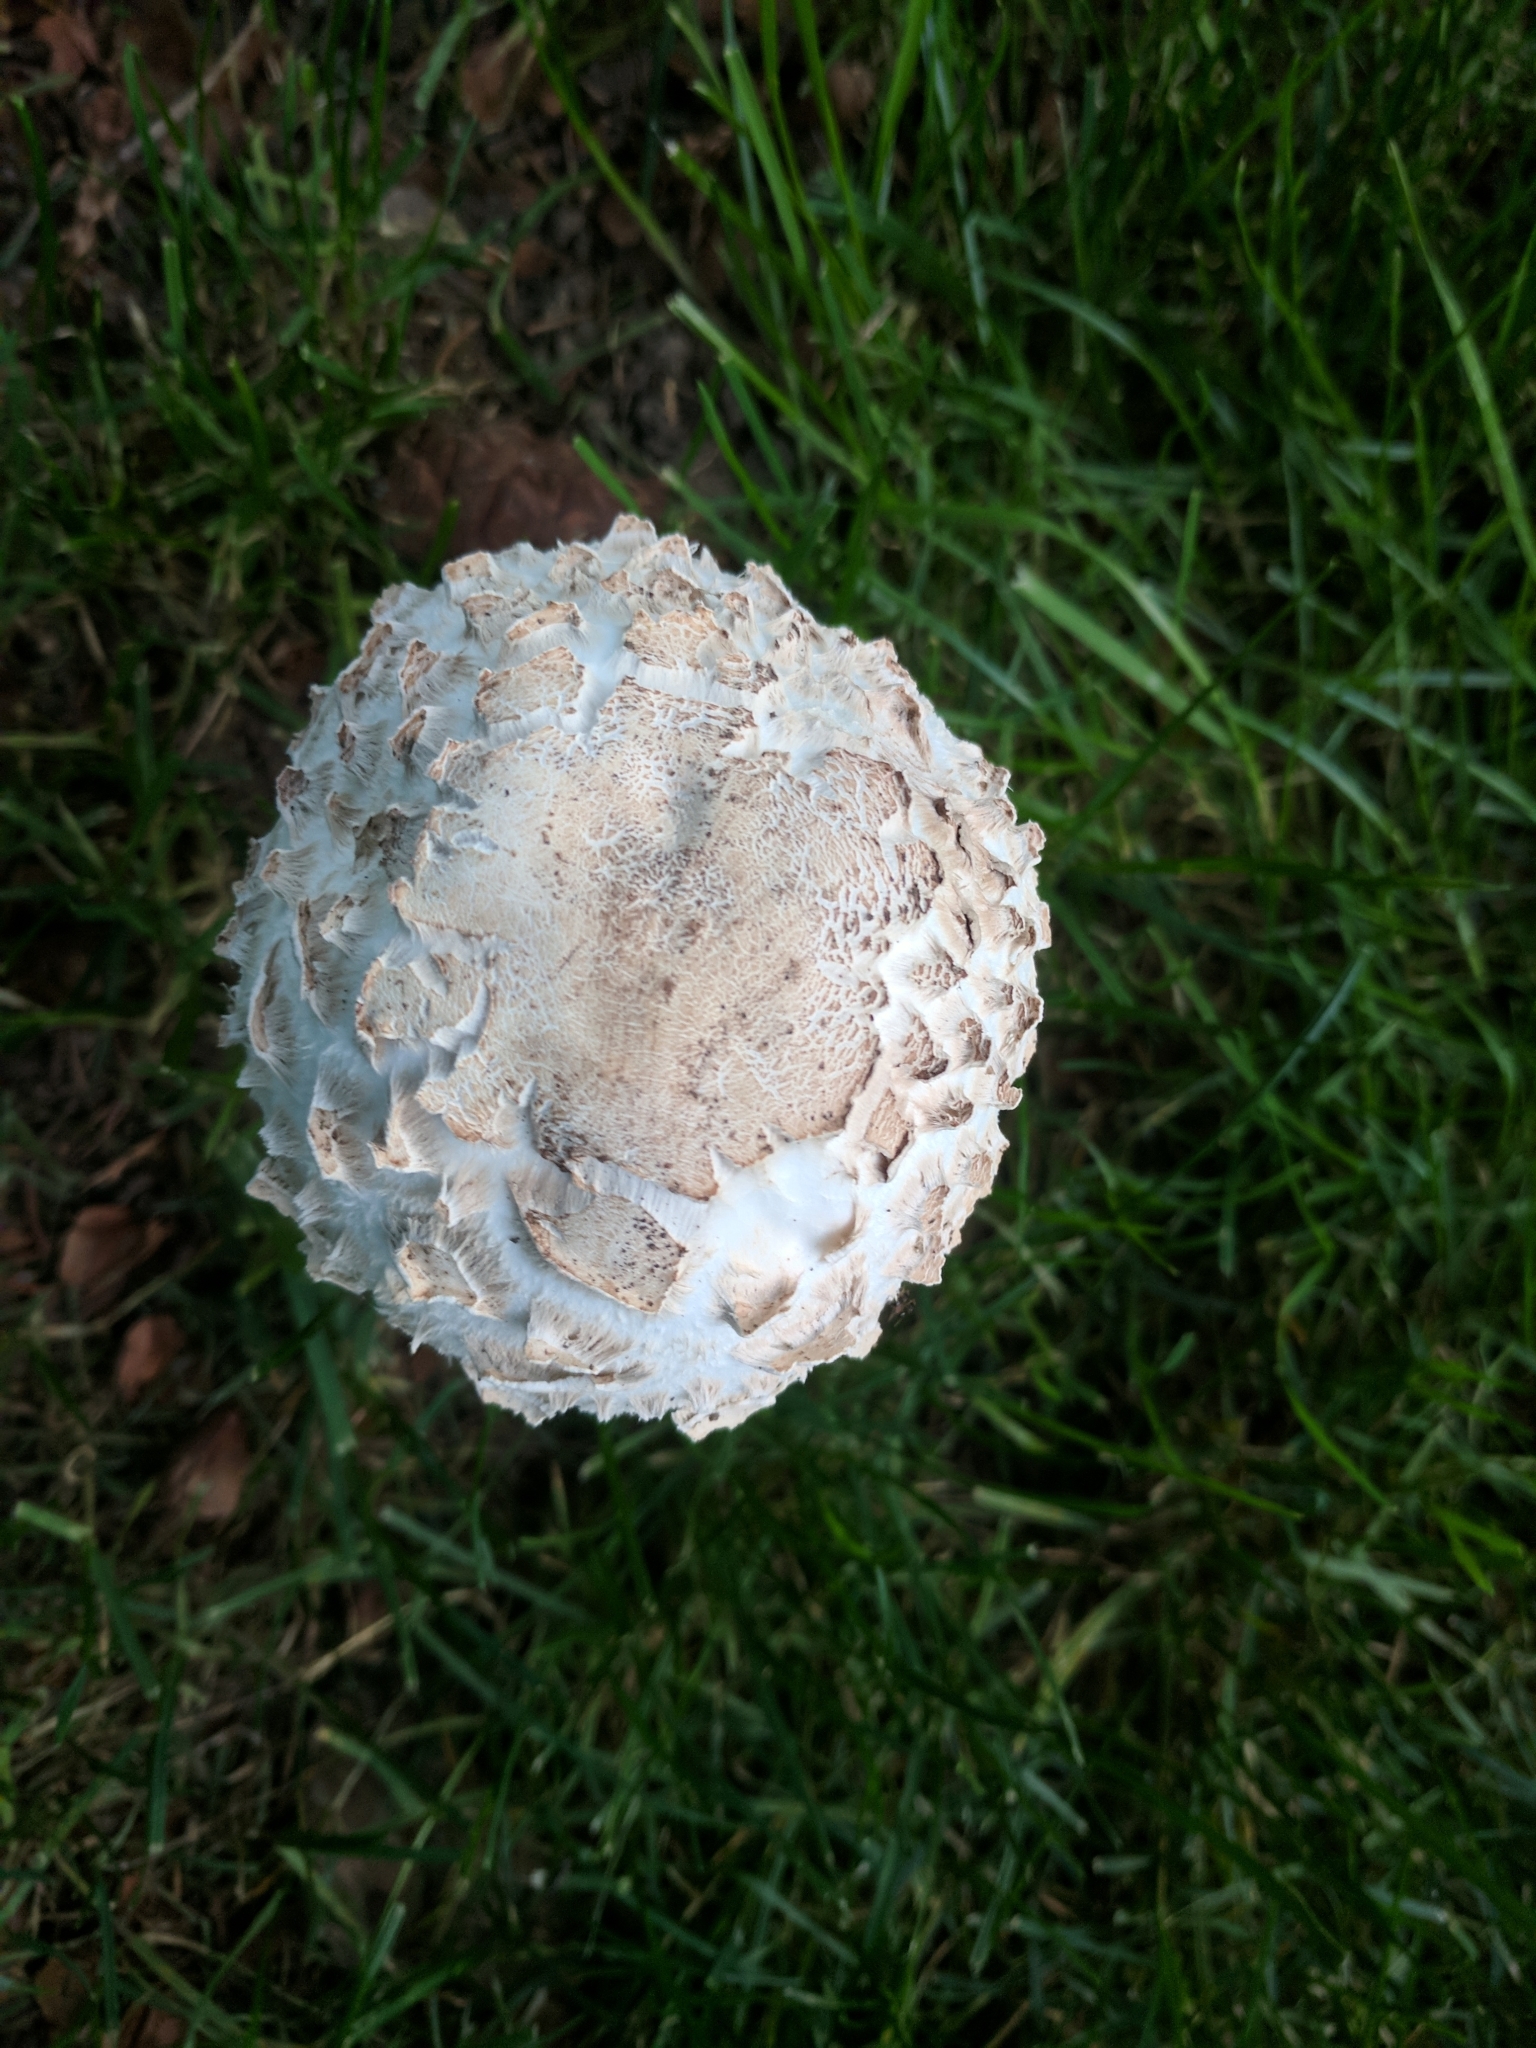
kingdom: Fungi
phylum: Basidiomycota
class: Agaricomycetes
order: Agaricales
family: Agaricaceae
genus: Chlorophyllum
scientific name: Chlorophyllum molybdites
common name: False parasol
